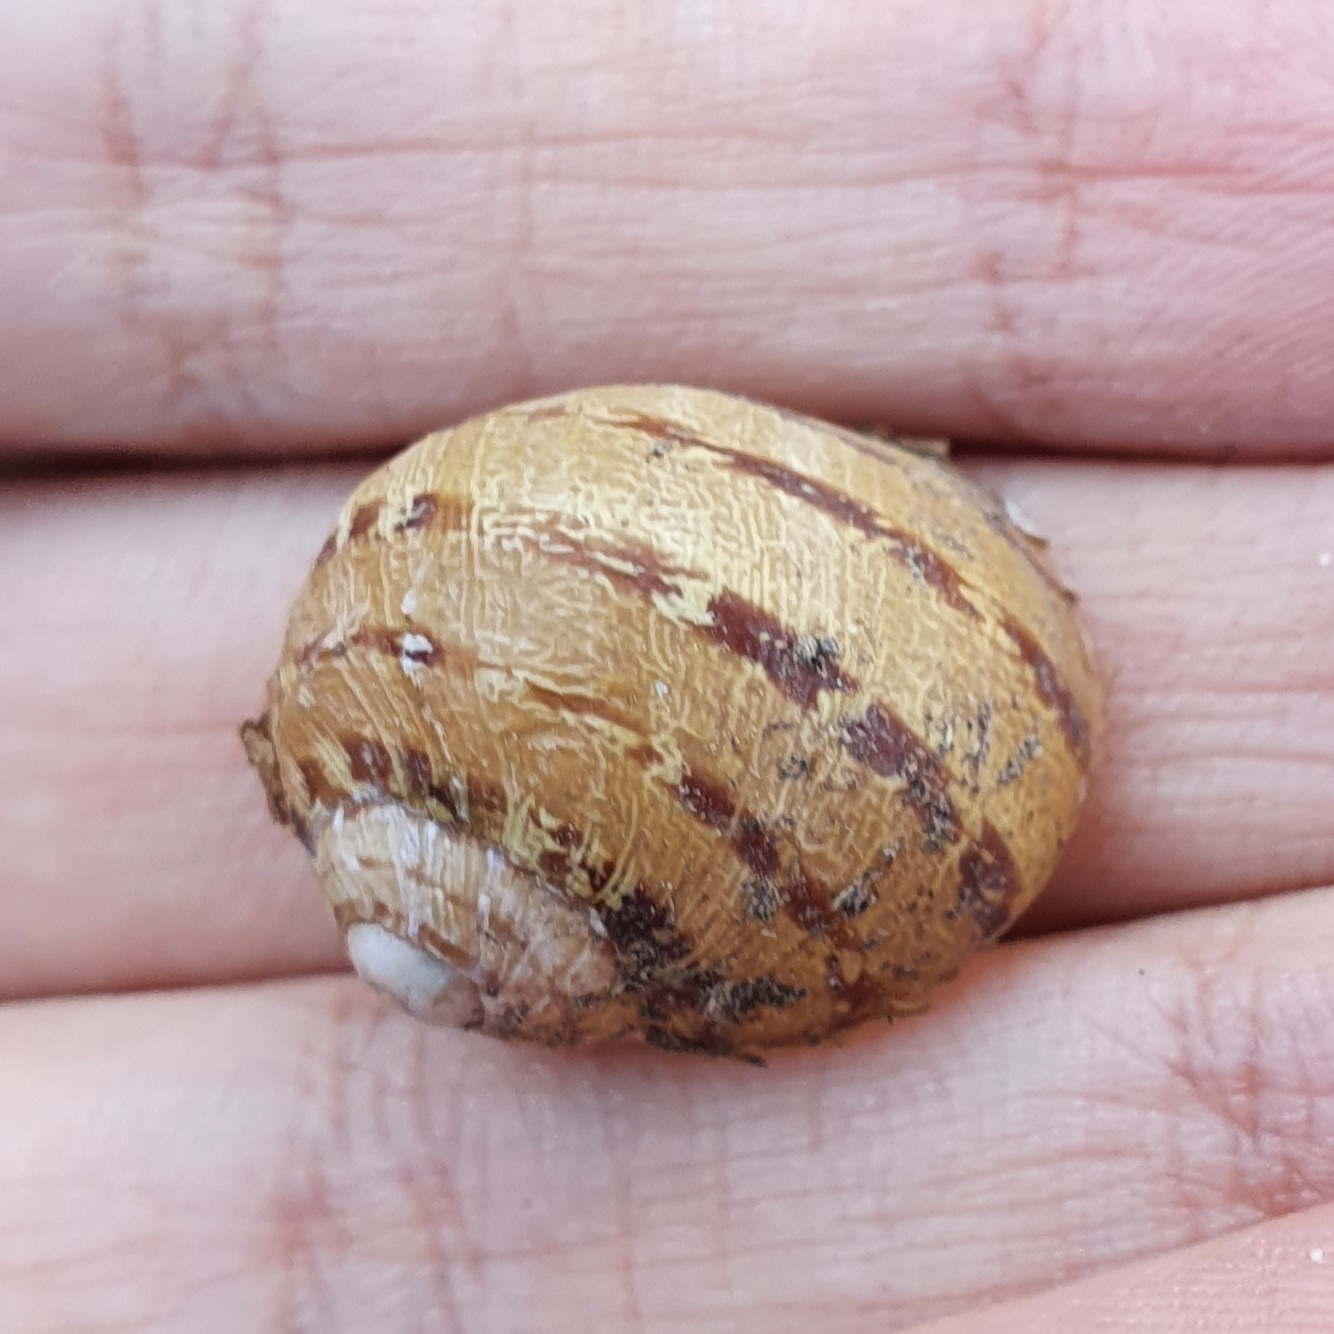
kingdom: Animalia
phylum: Mollusca
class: Gastropoda
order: Stylommatophora
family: Helicidae
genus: Cornu
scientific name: Cornu aspersum
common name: Brown garden snail
